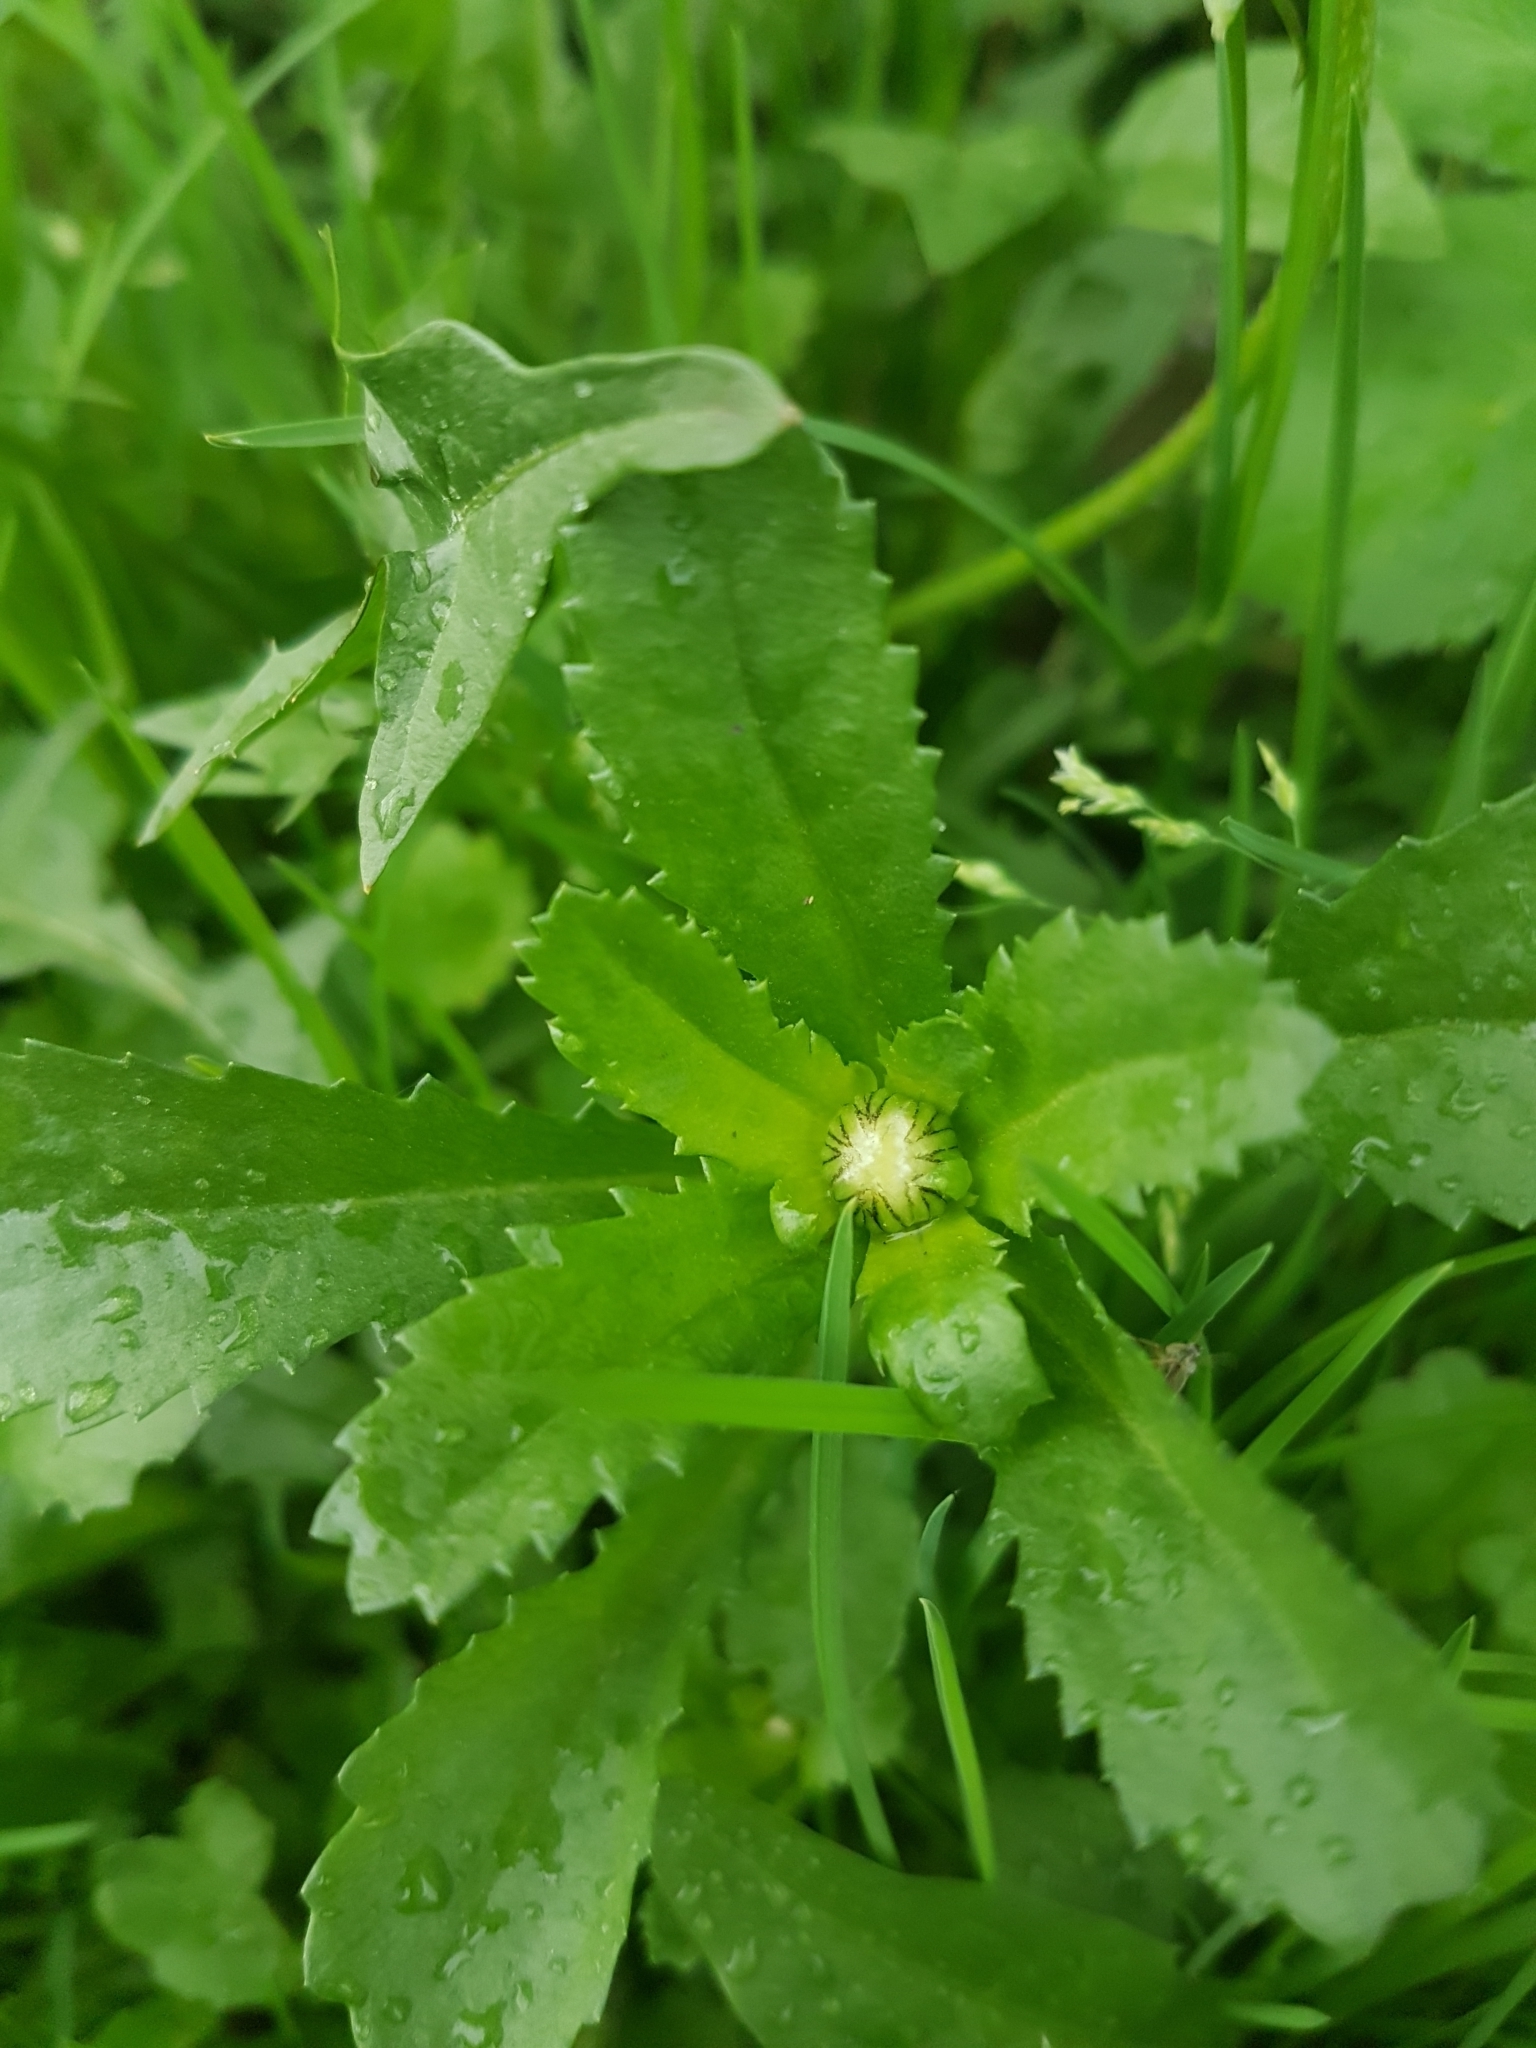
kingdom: Plantae
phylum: Tracheophyta
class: Magnoliopsida
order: Asterales
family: Asteraceae
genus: Leucanthemum
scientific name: Leucanthemum vulgare
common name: Oxeye daisy
